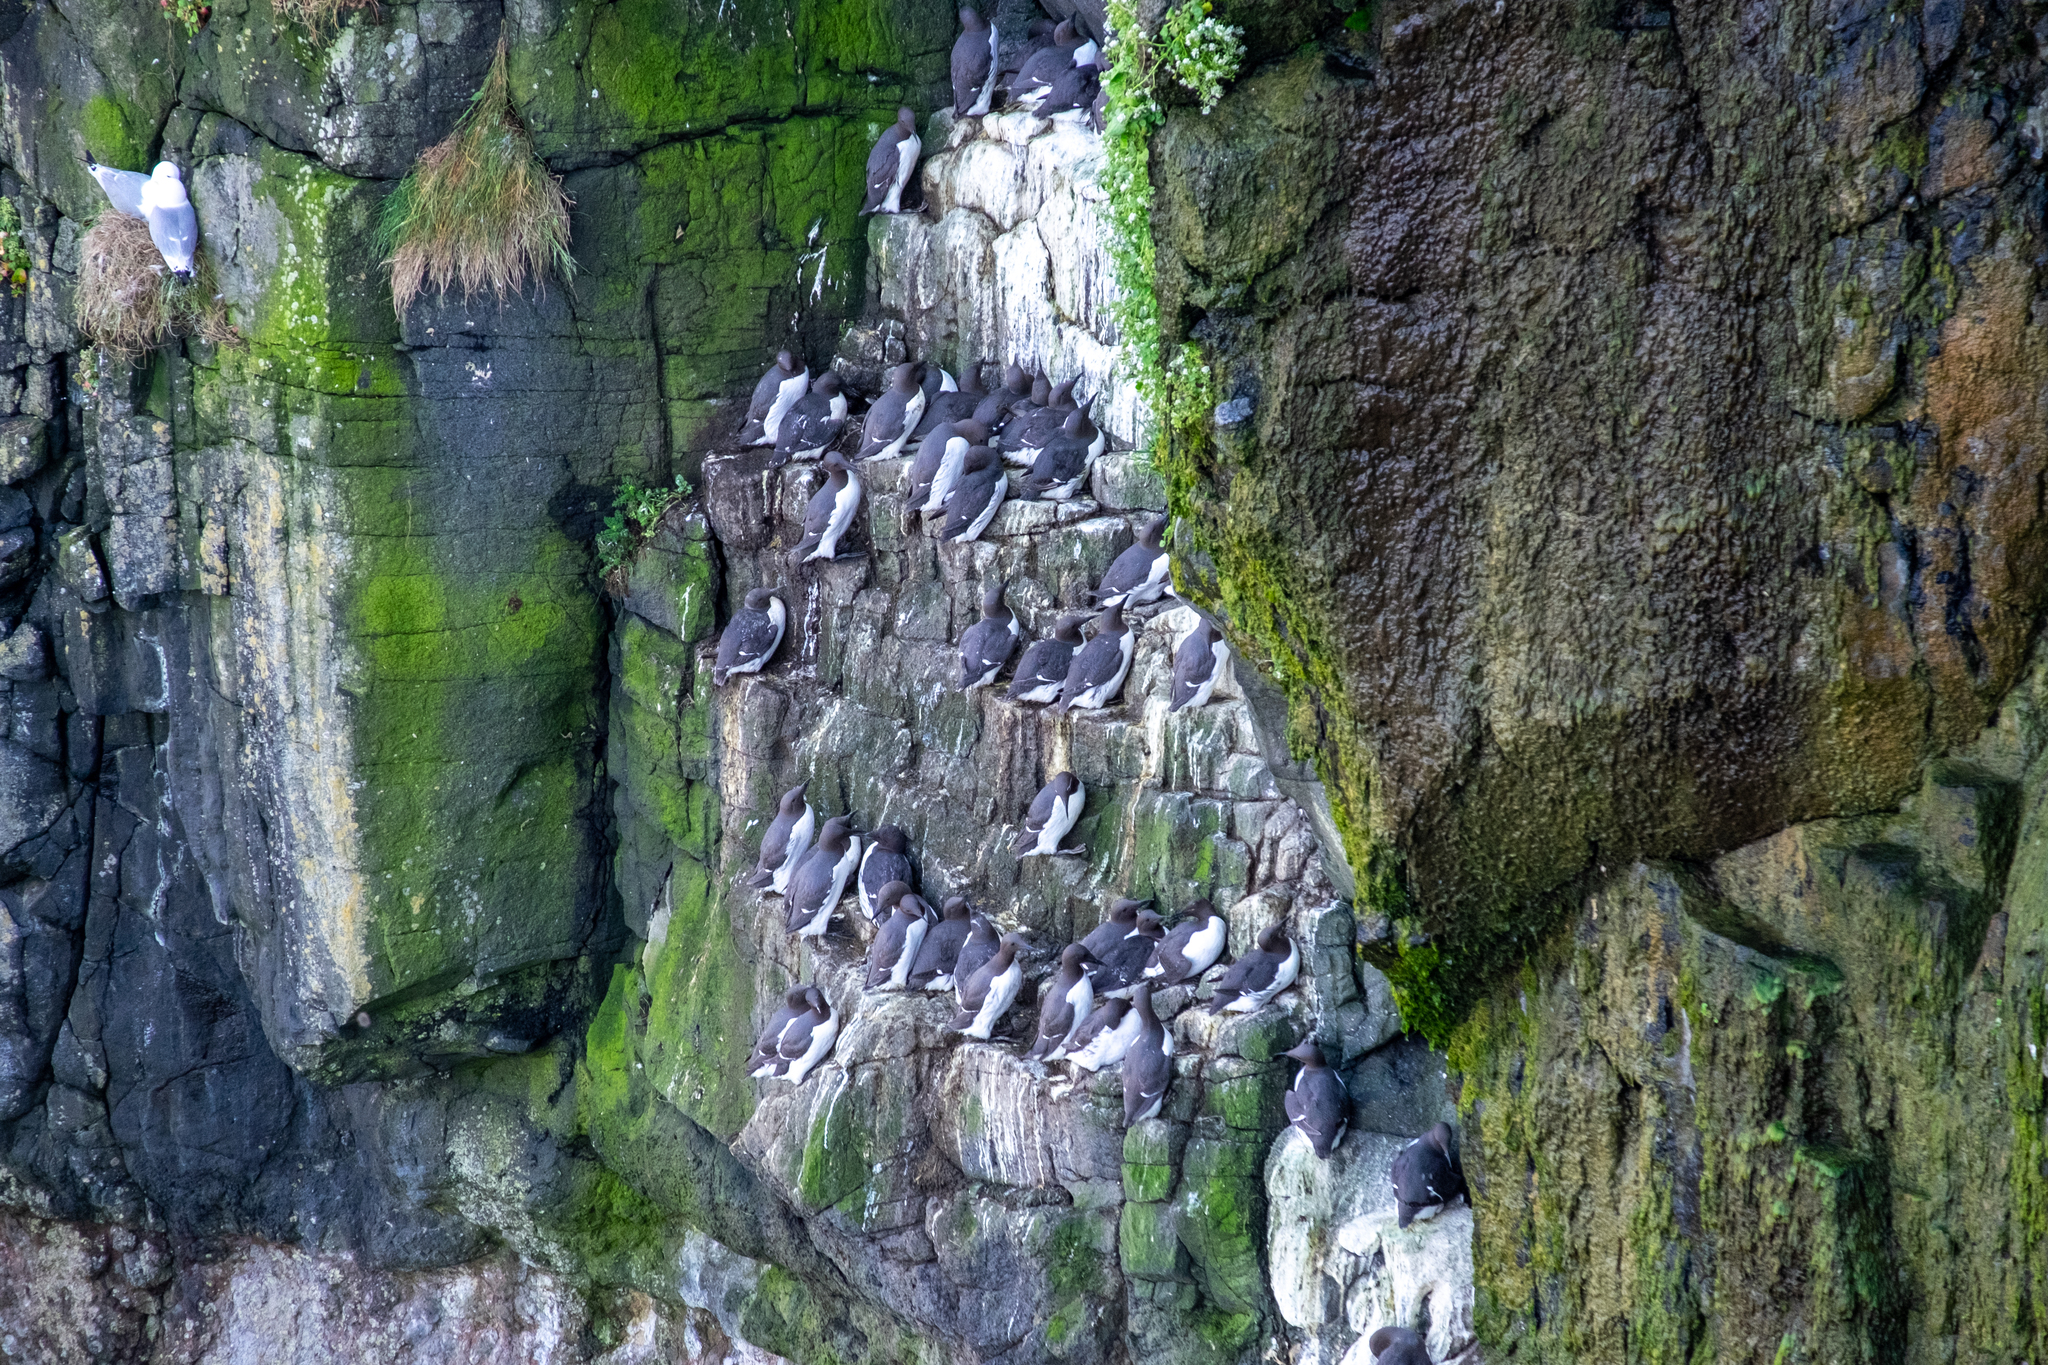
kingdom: Animalia
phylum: Chordata
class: Aves
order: Charadriiformes
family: Alcidae
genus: Uria
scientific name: Uria aalge
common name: Common murre
